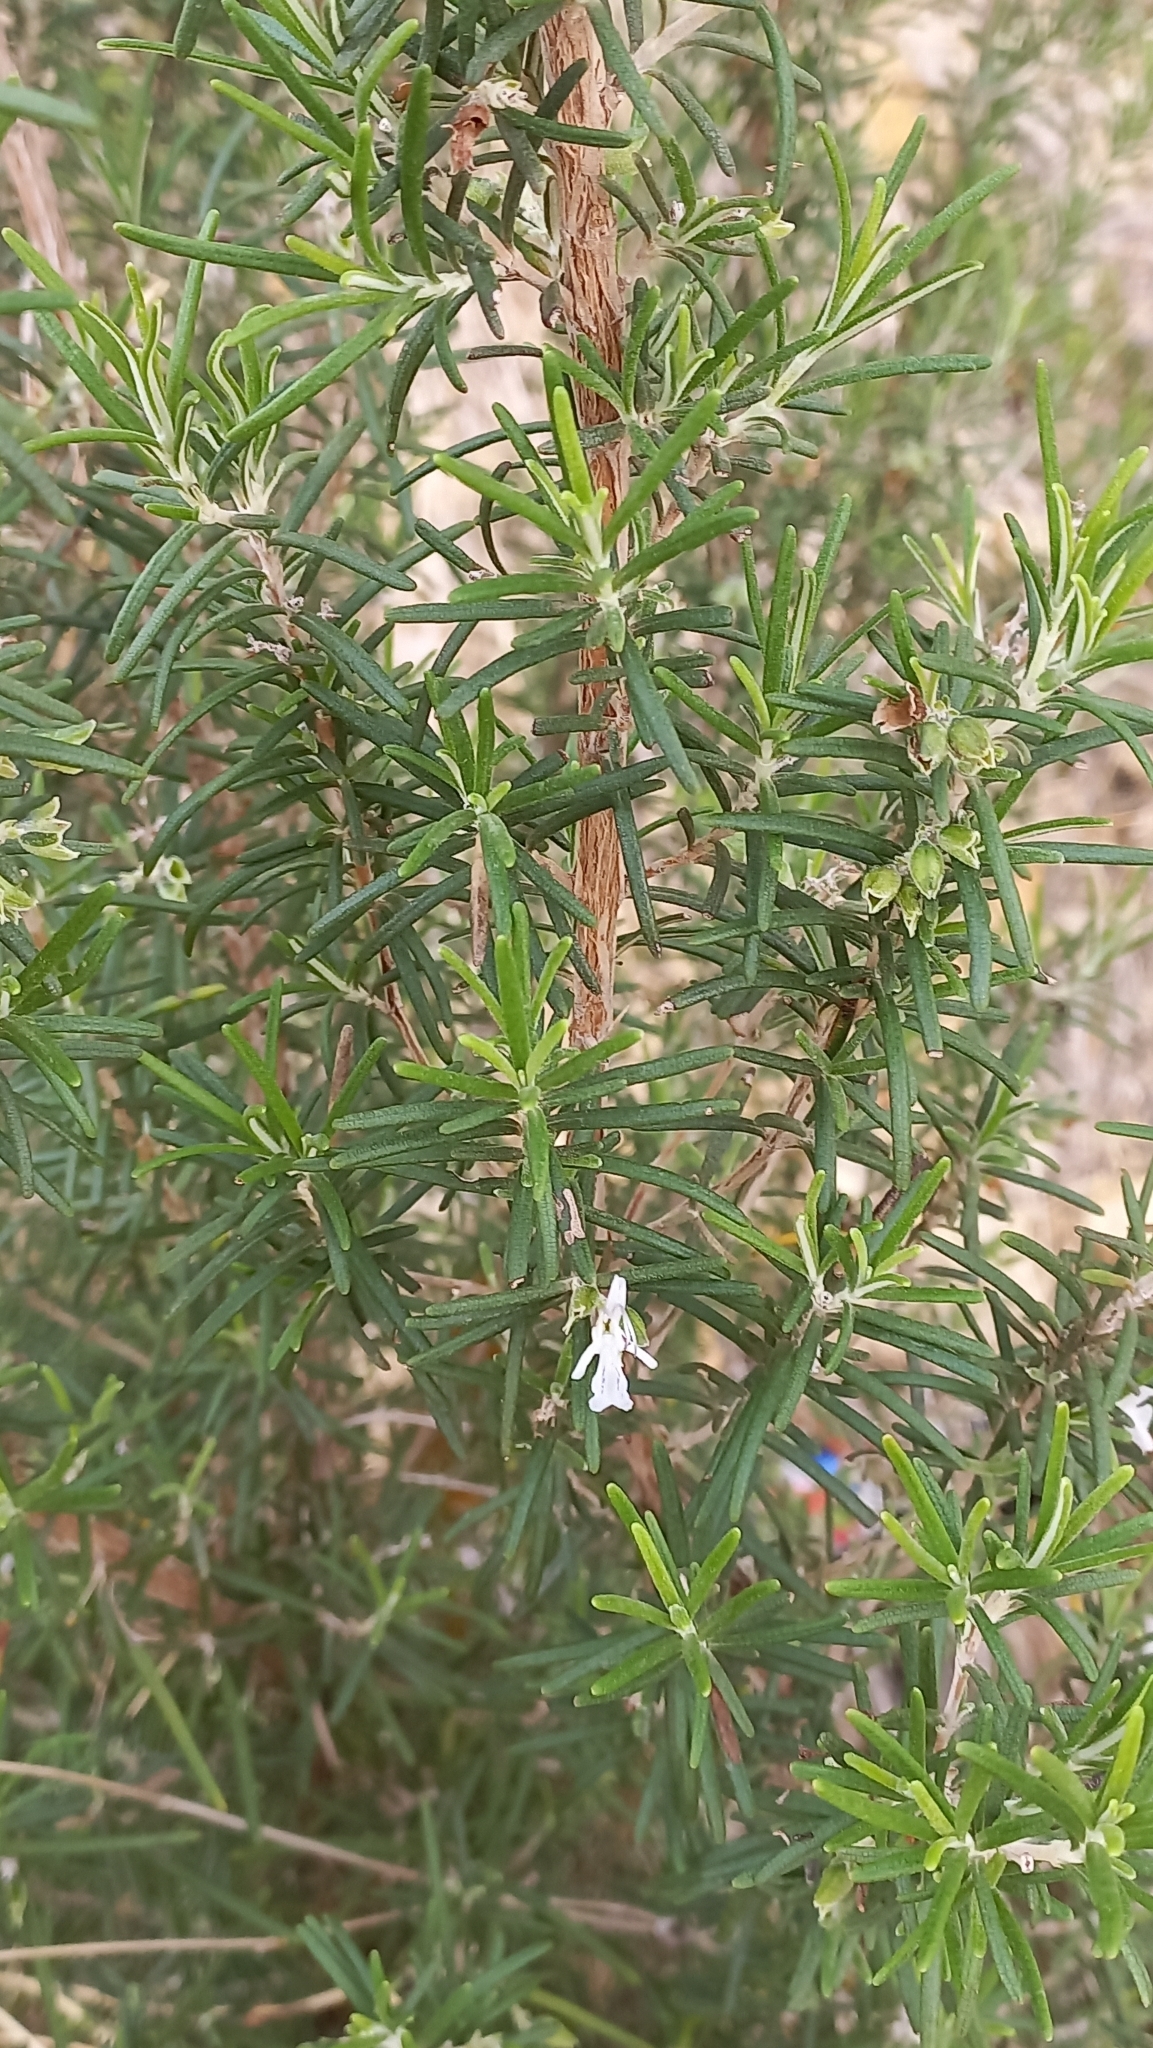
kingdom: Plantae
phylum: Tracheophyta
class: Magnoliopsida
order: Lamiales
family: Lamiaceae
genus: Salvia
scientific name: Salvia rosmarinus
